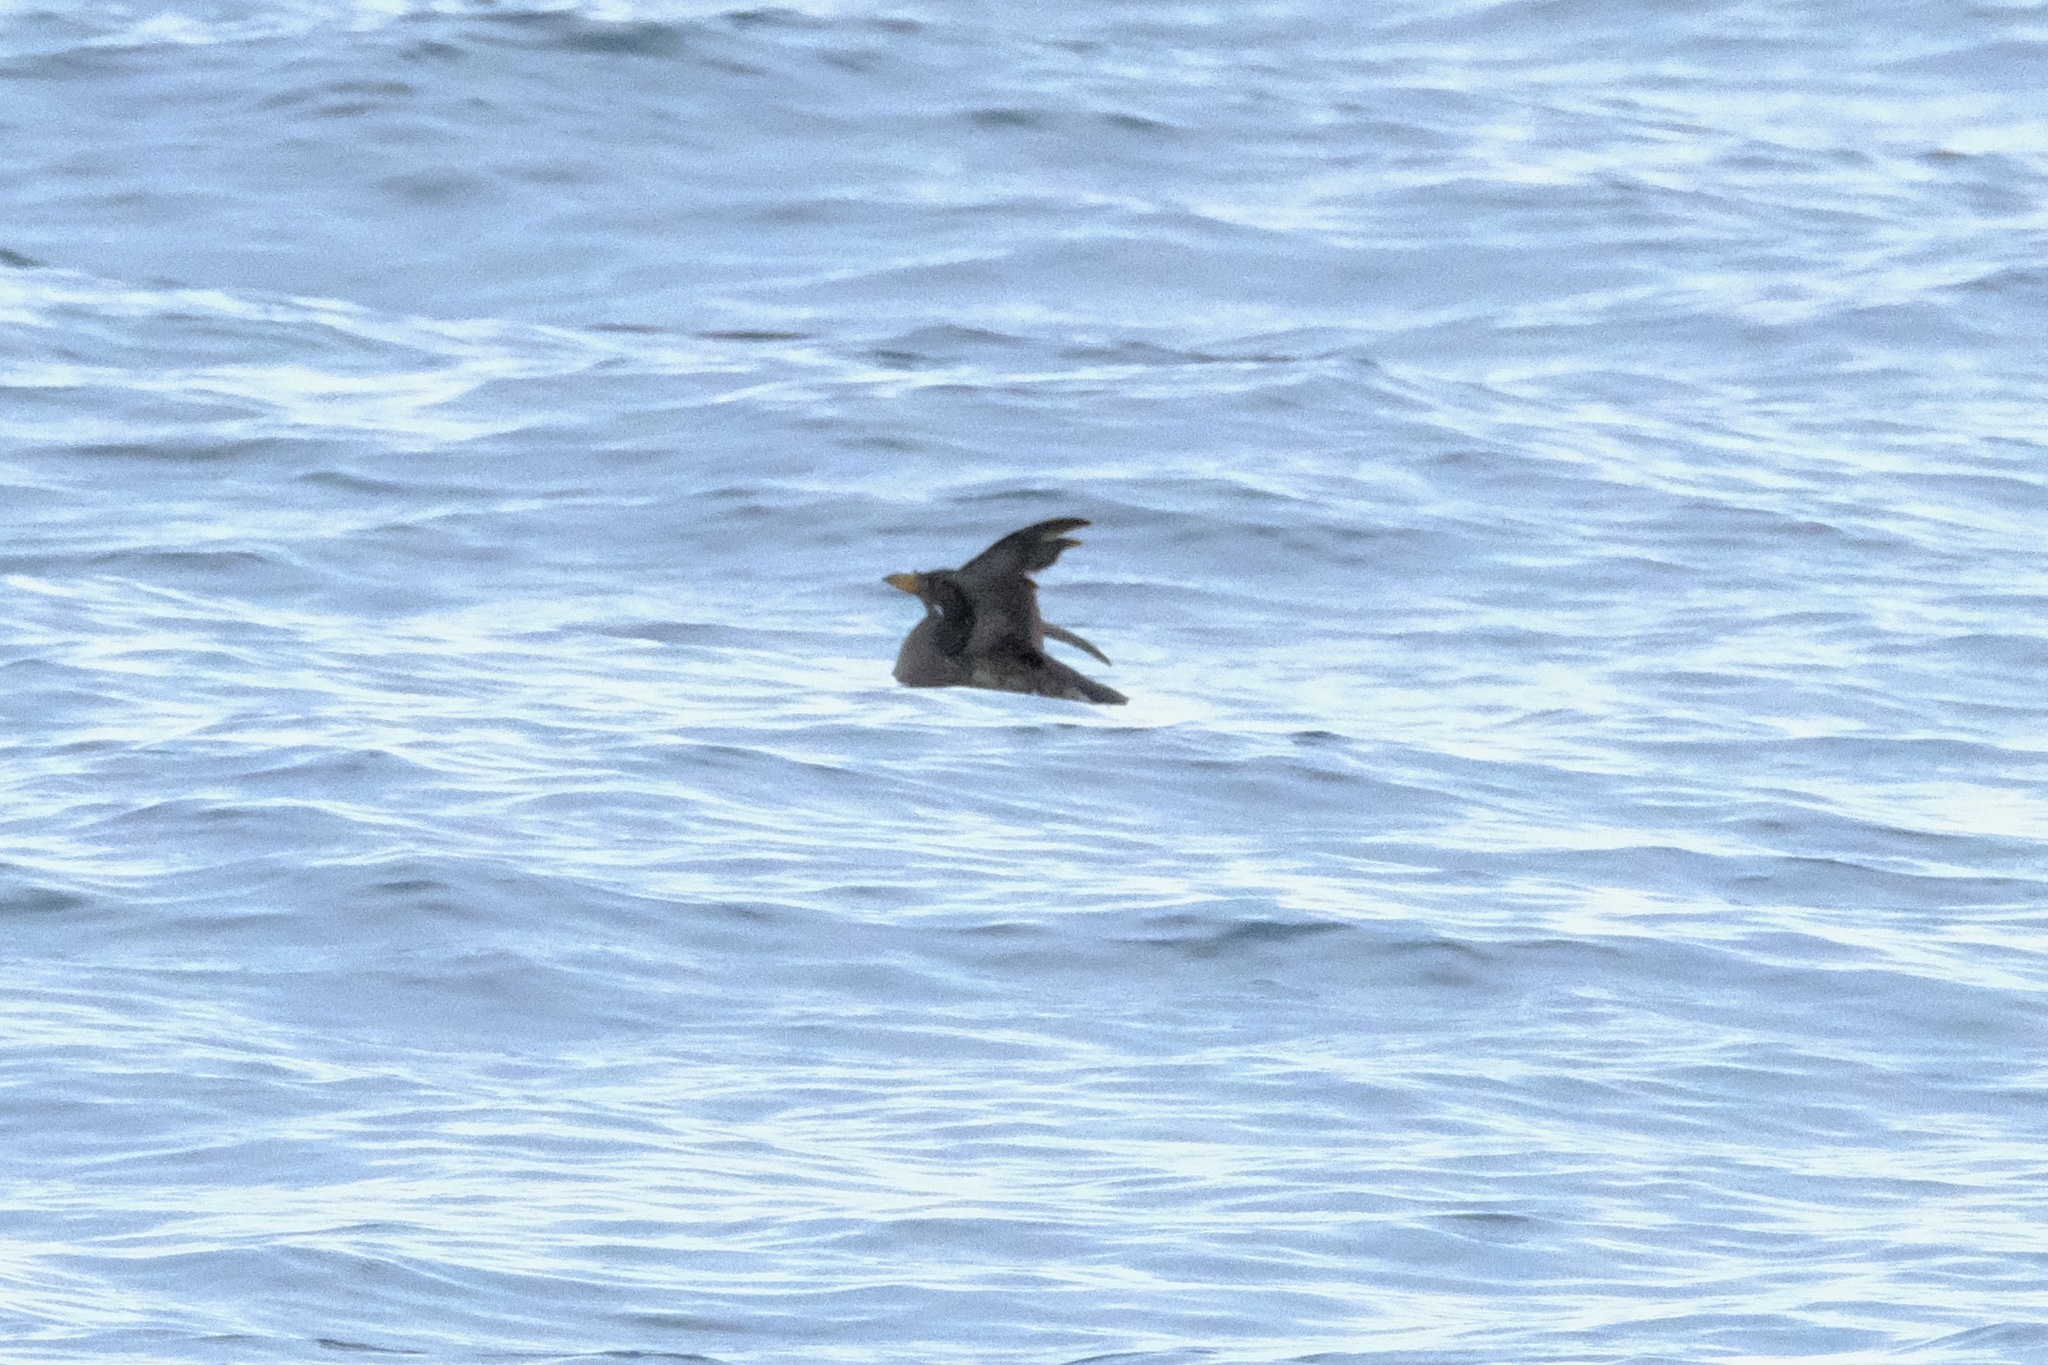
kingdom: Animalia
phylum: Chordata
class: Aves
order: Charadriiformes
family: Alcidae
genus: Cerorhinca
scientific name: Cerorhinca monocerata
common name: Rhinoceros auklet
